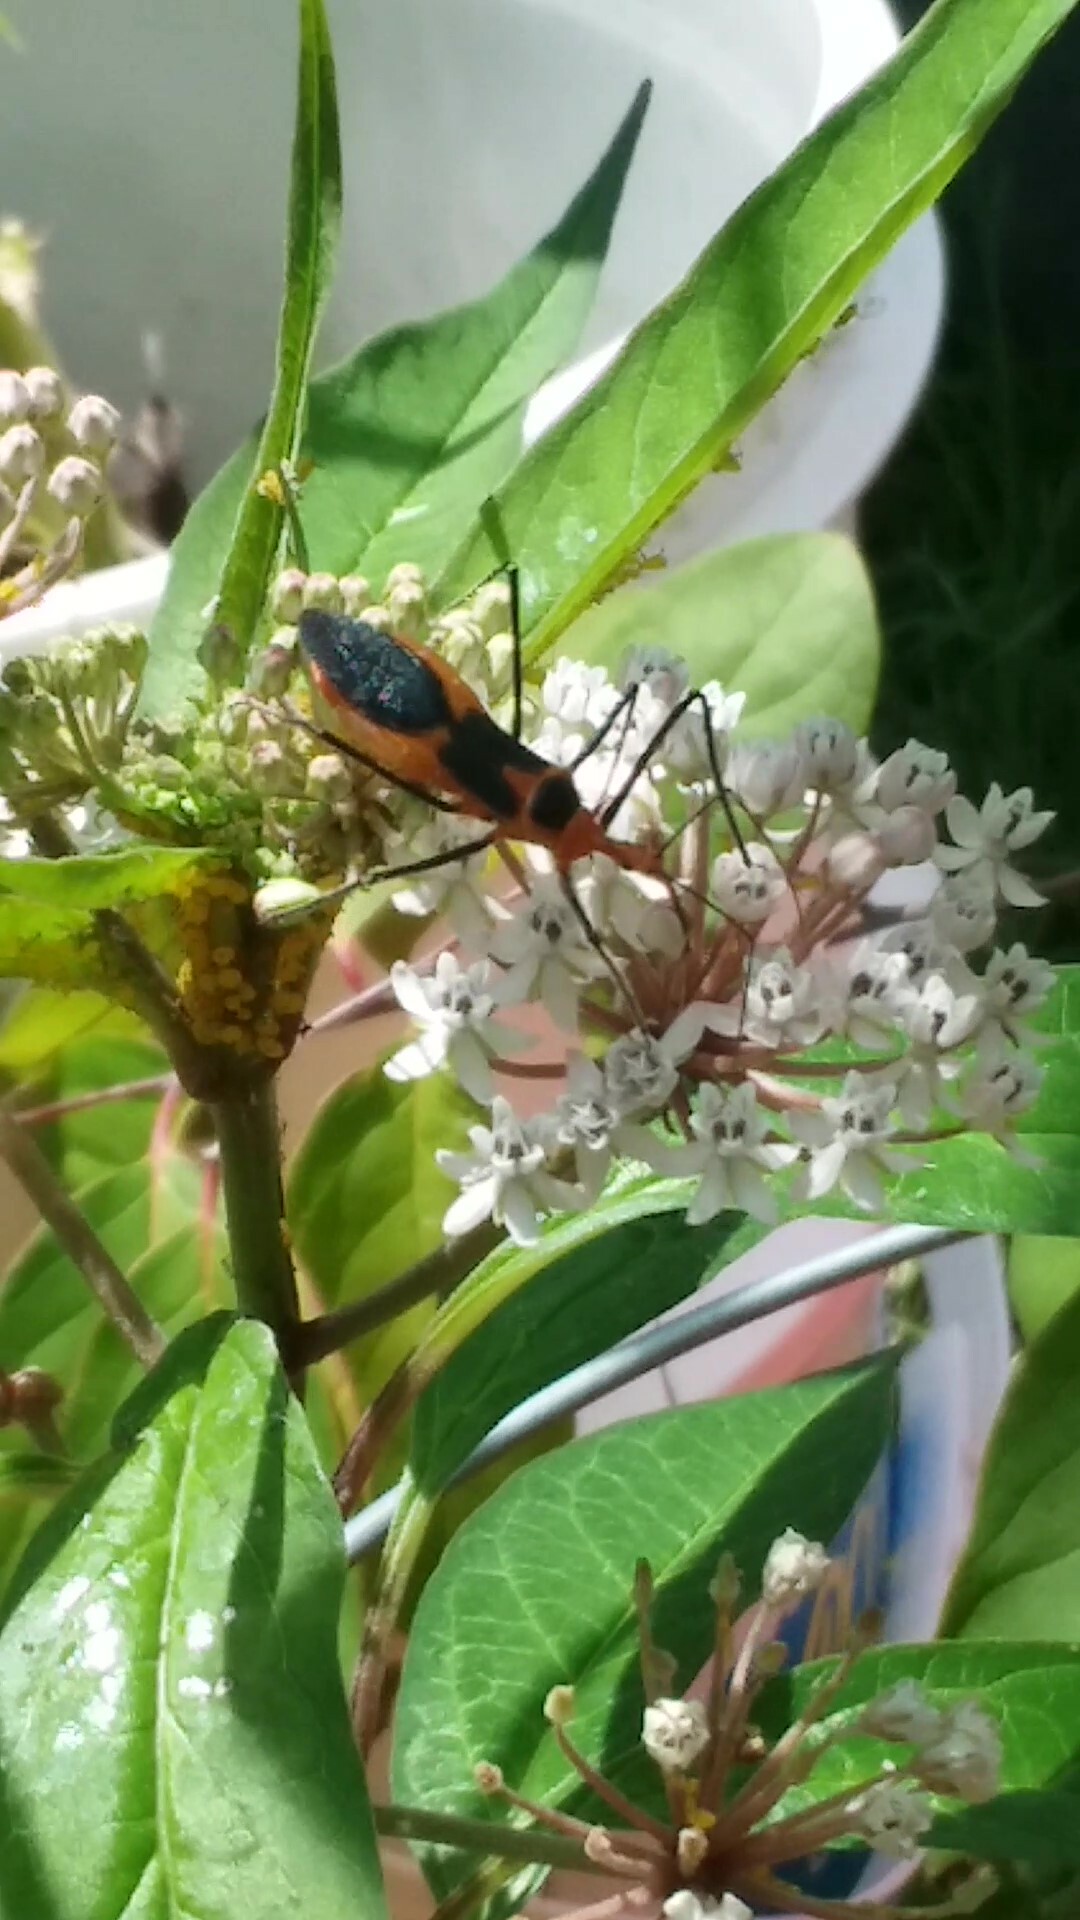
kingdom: Animalia
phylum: Arthropoda
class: Insecta
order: Hemiptera
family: Aphididae
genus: Aphis
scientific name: Aphis nerii
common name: Oleander aphid
